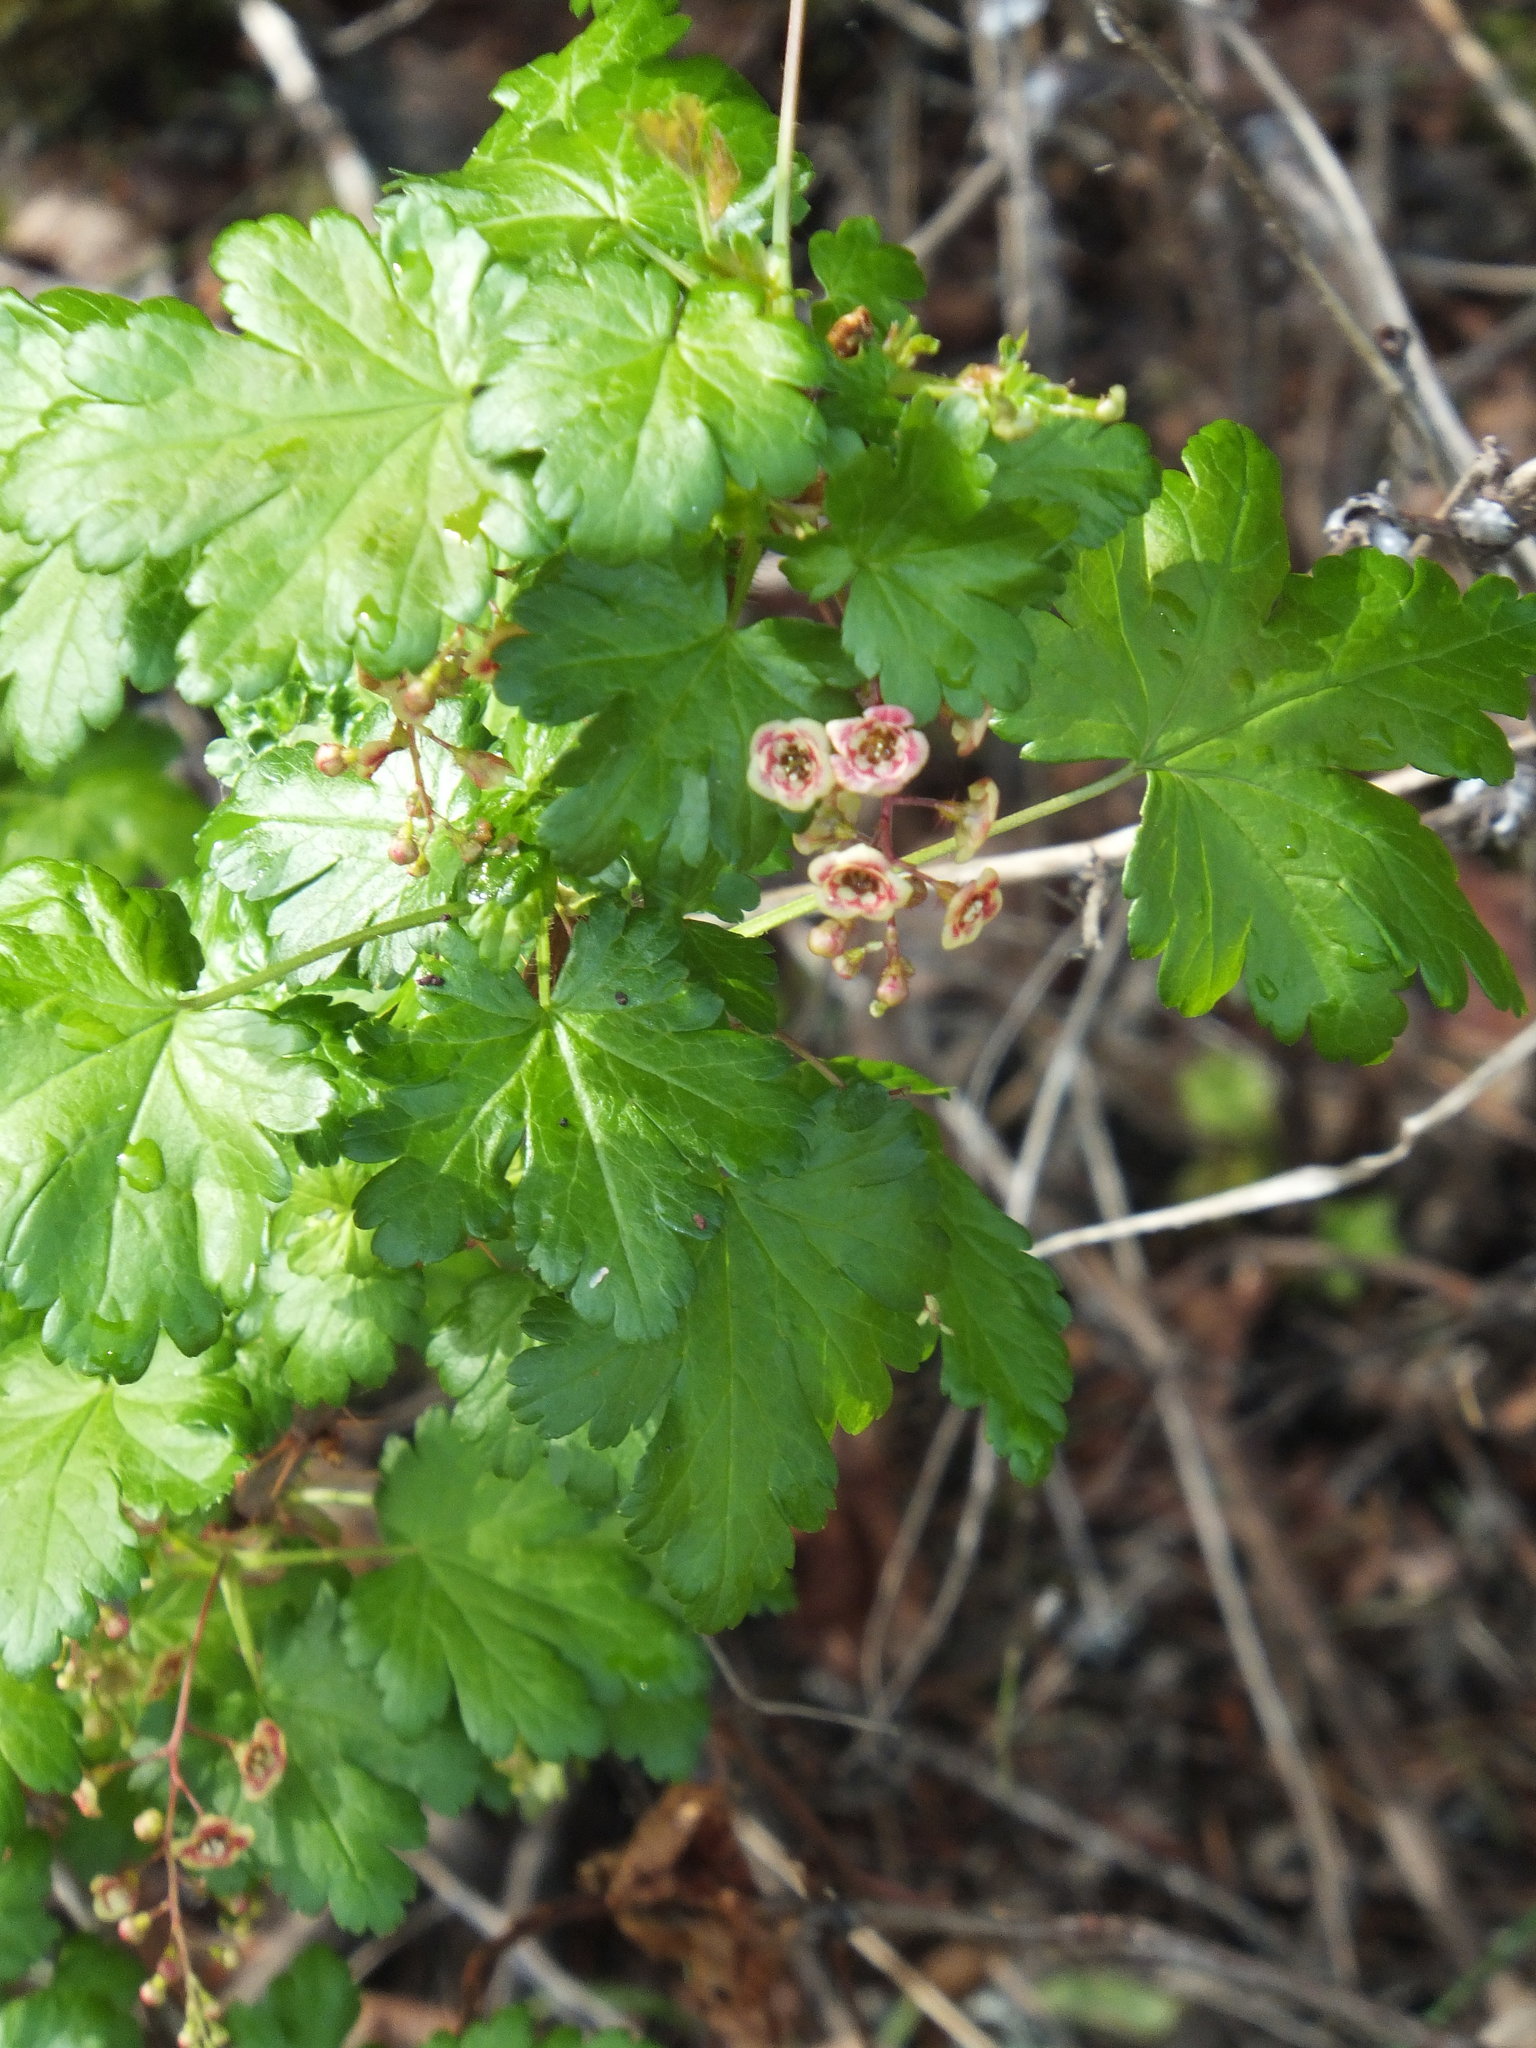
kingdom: Plantae
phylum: Tracheophyta
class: Magnoliopsida
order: Saxifragales
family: Grossulariaceae
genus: Ribes
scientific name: Ribes lacustre
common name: Black gooseberry
